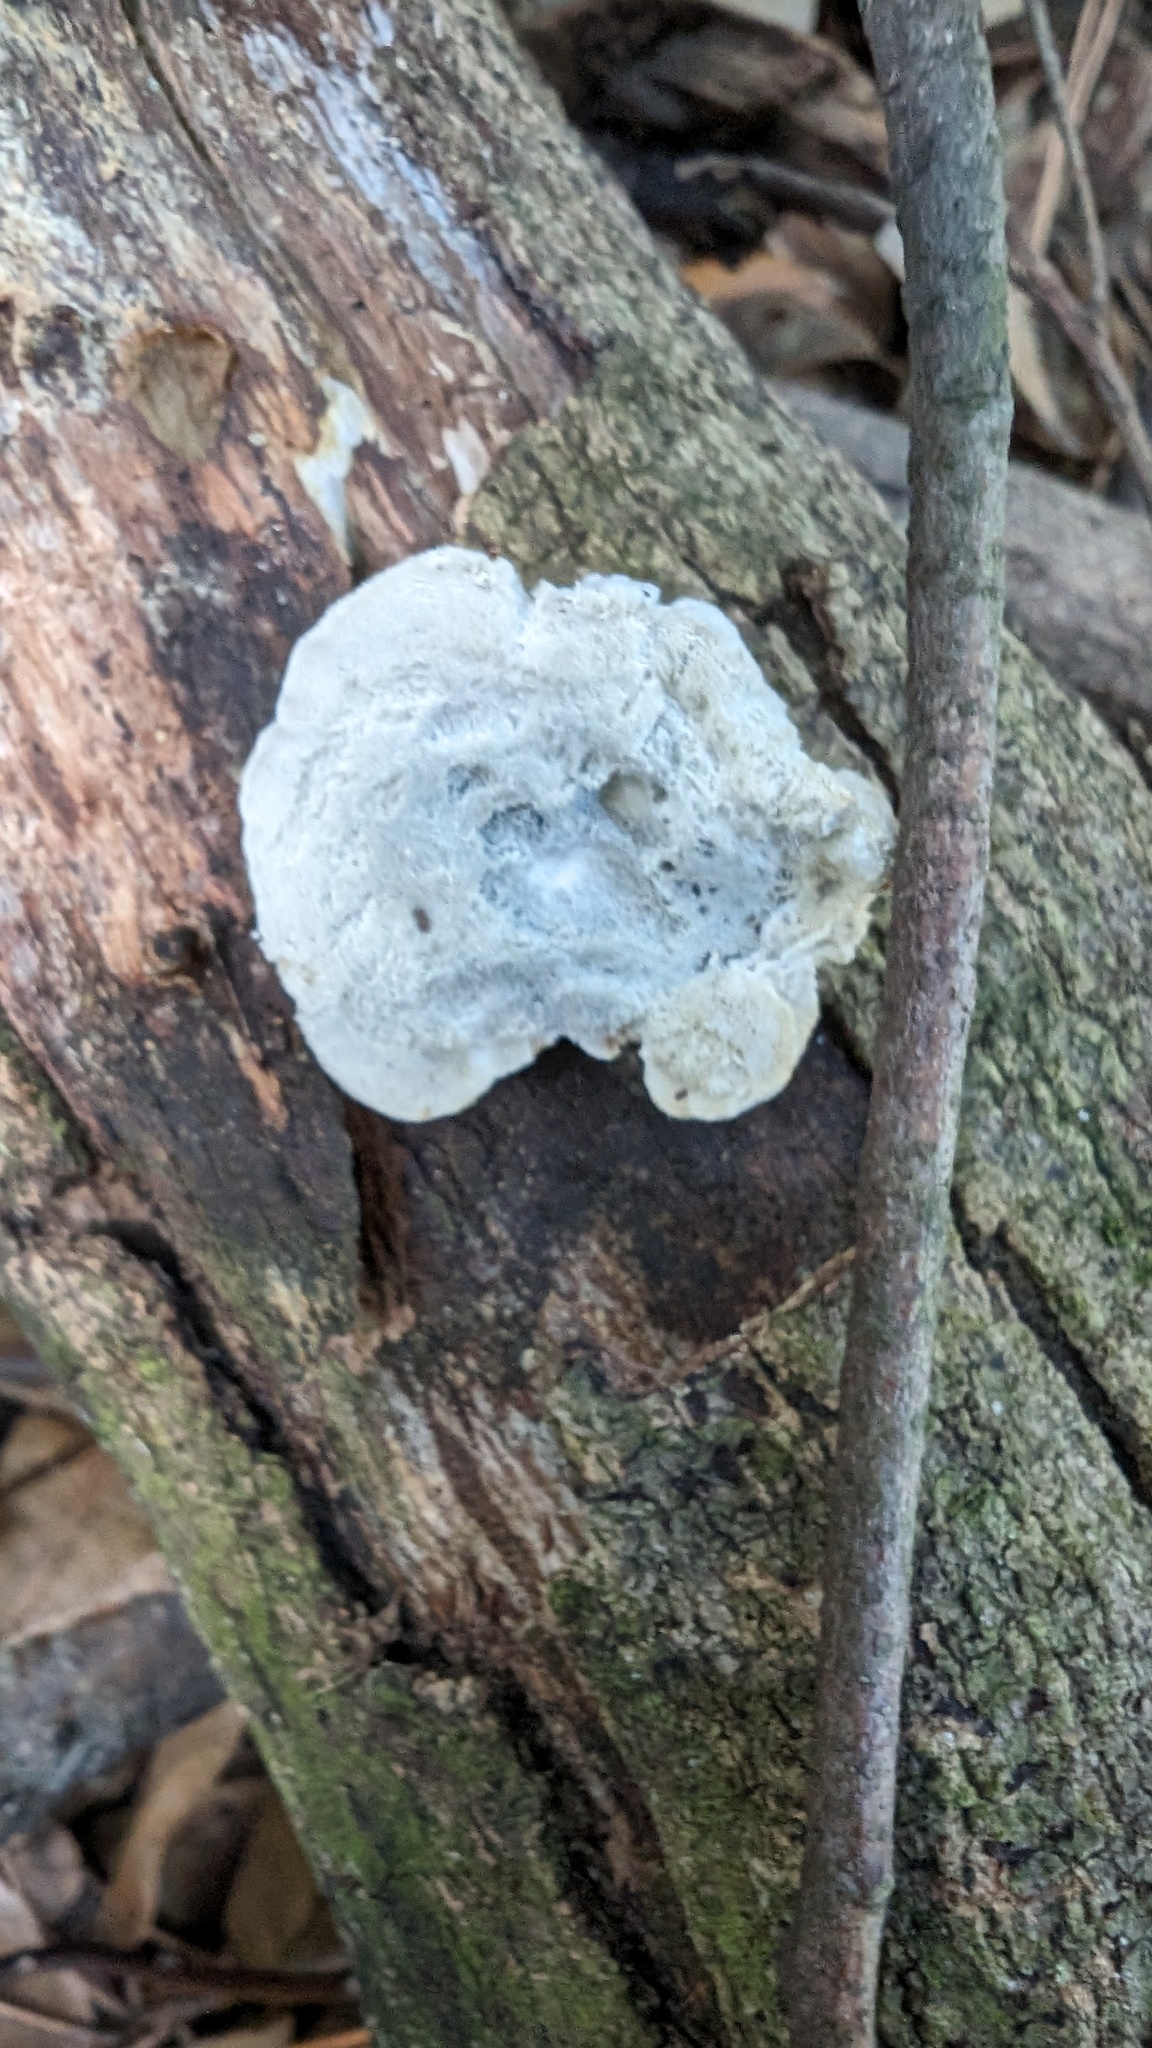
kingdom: Fungi
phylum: Basidiomycota
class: Agaricomycetes
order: Polyporales
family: Polyporaceae
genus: Cyanosporus
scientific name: Cyanosporus caesius
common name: Blue cheese polypore
